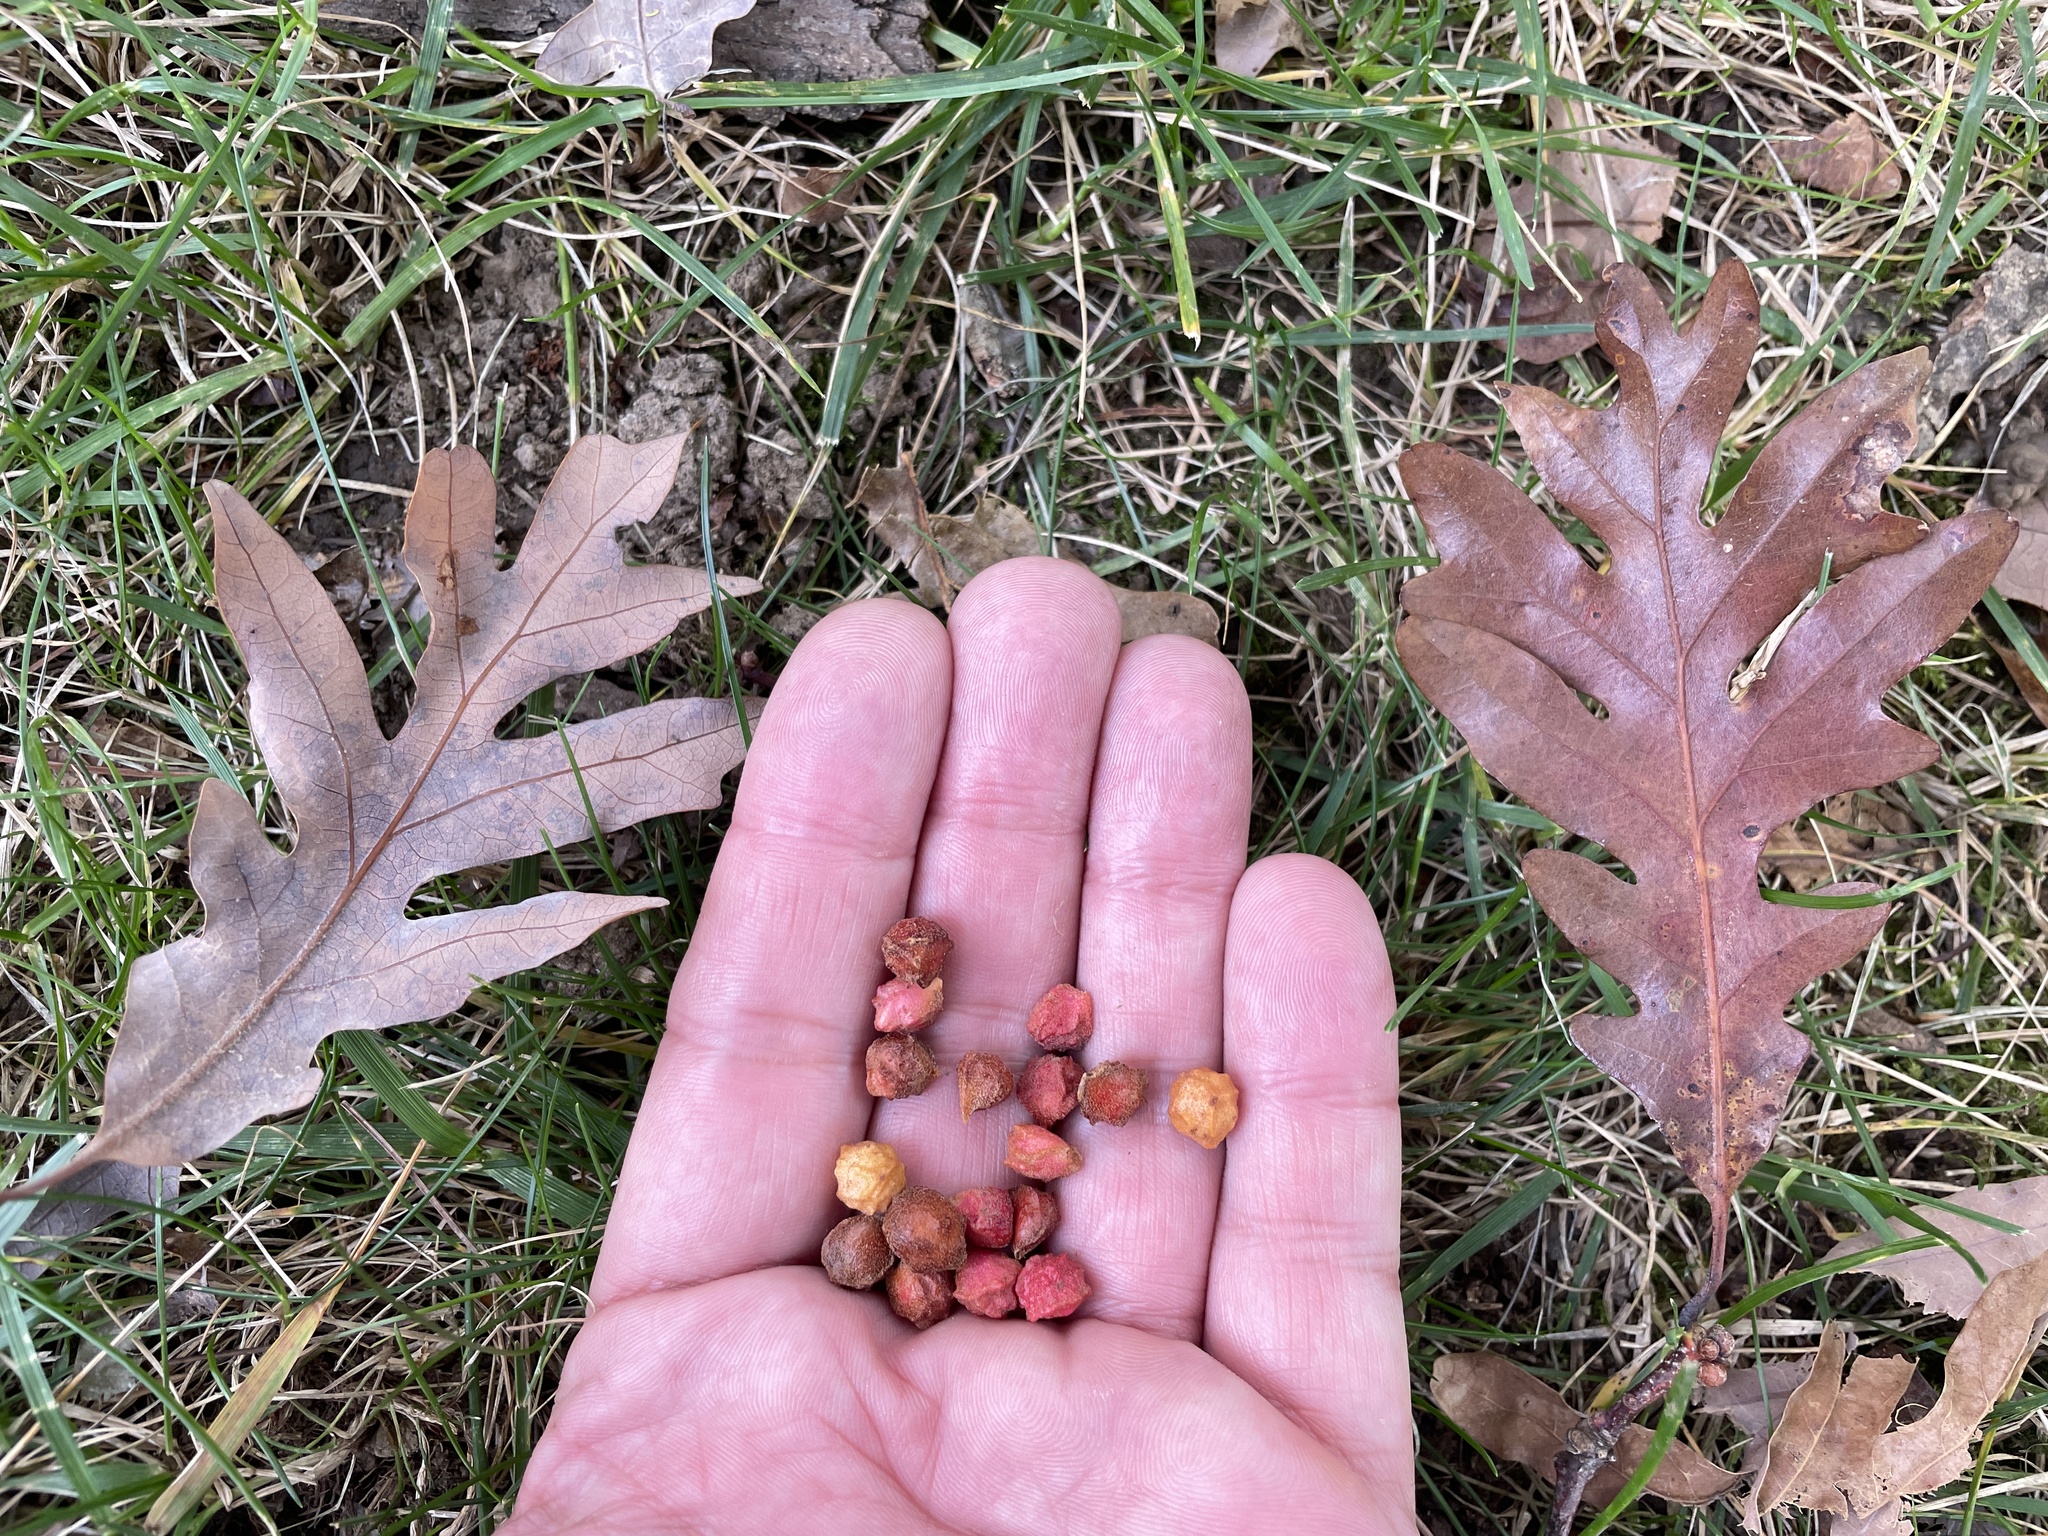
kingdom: Animalia
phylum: Arthropoda
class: Insecta
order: Hymenoptera
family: Cynipidae
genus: Andricus
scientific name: Andricus
